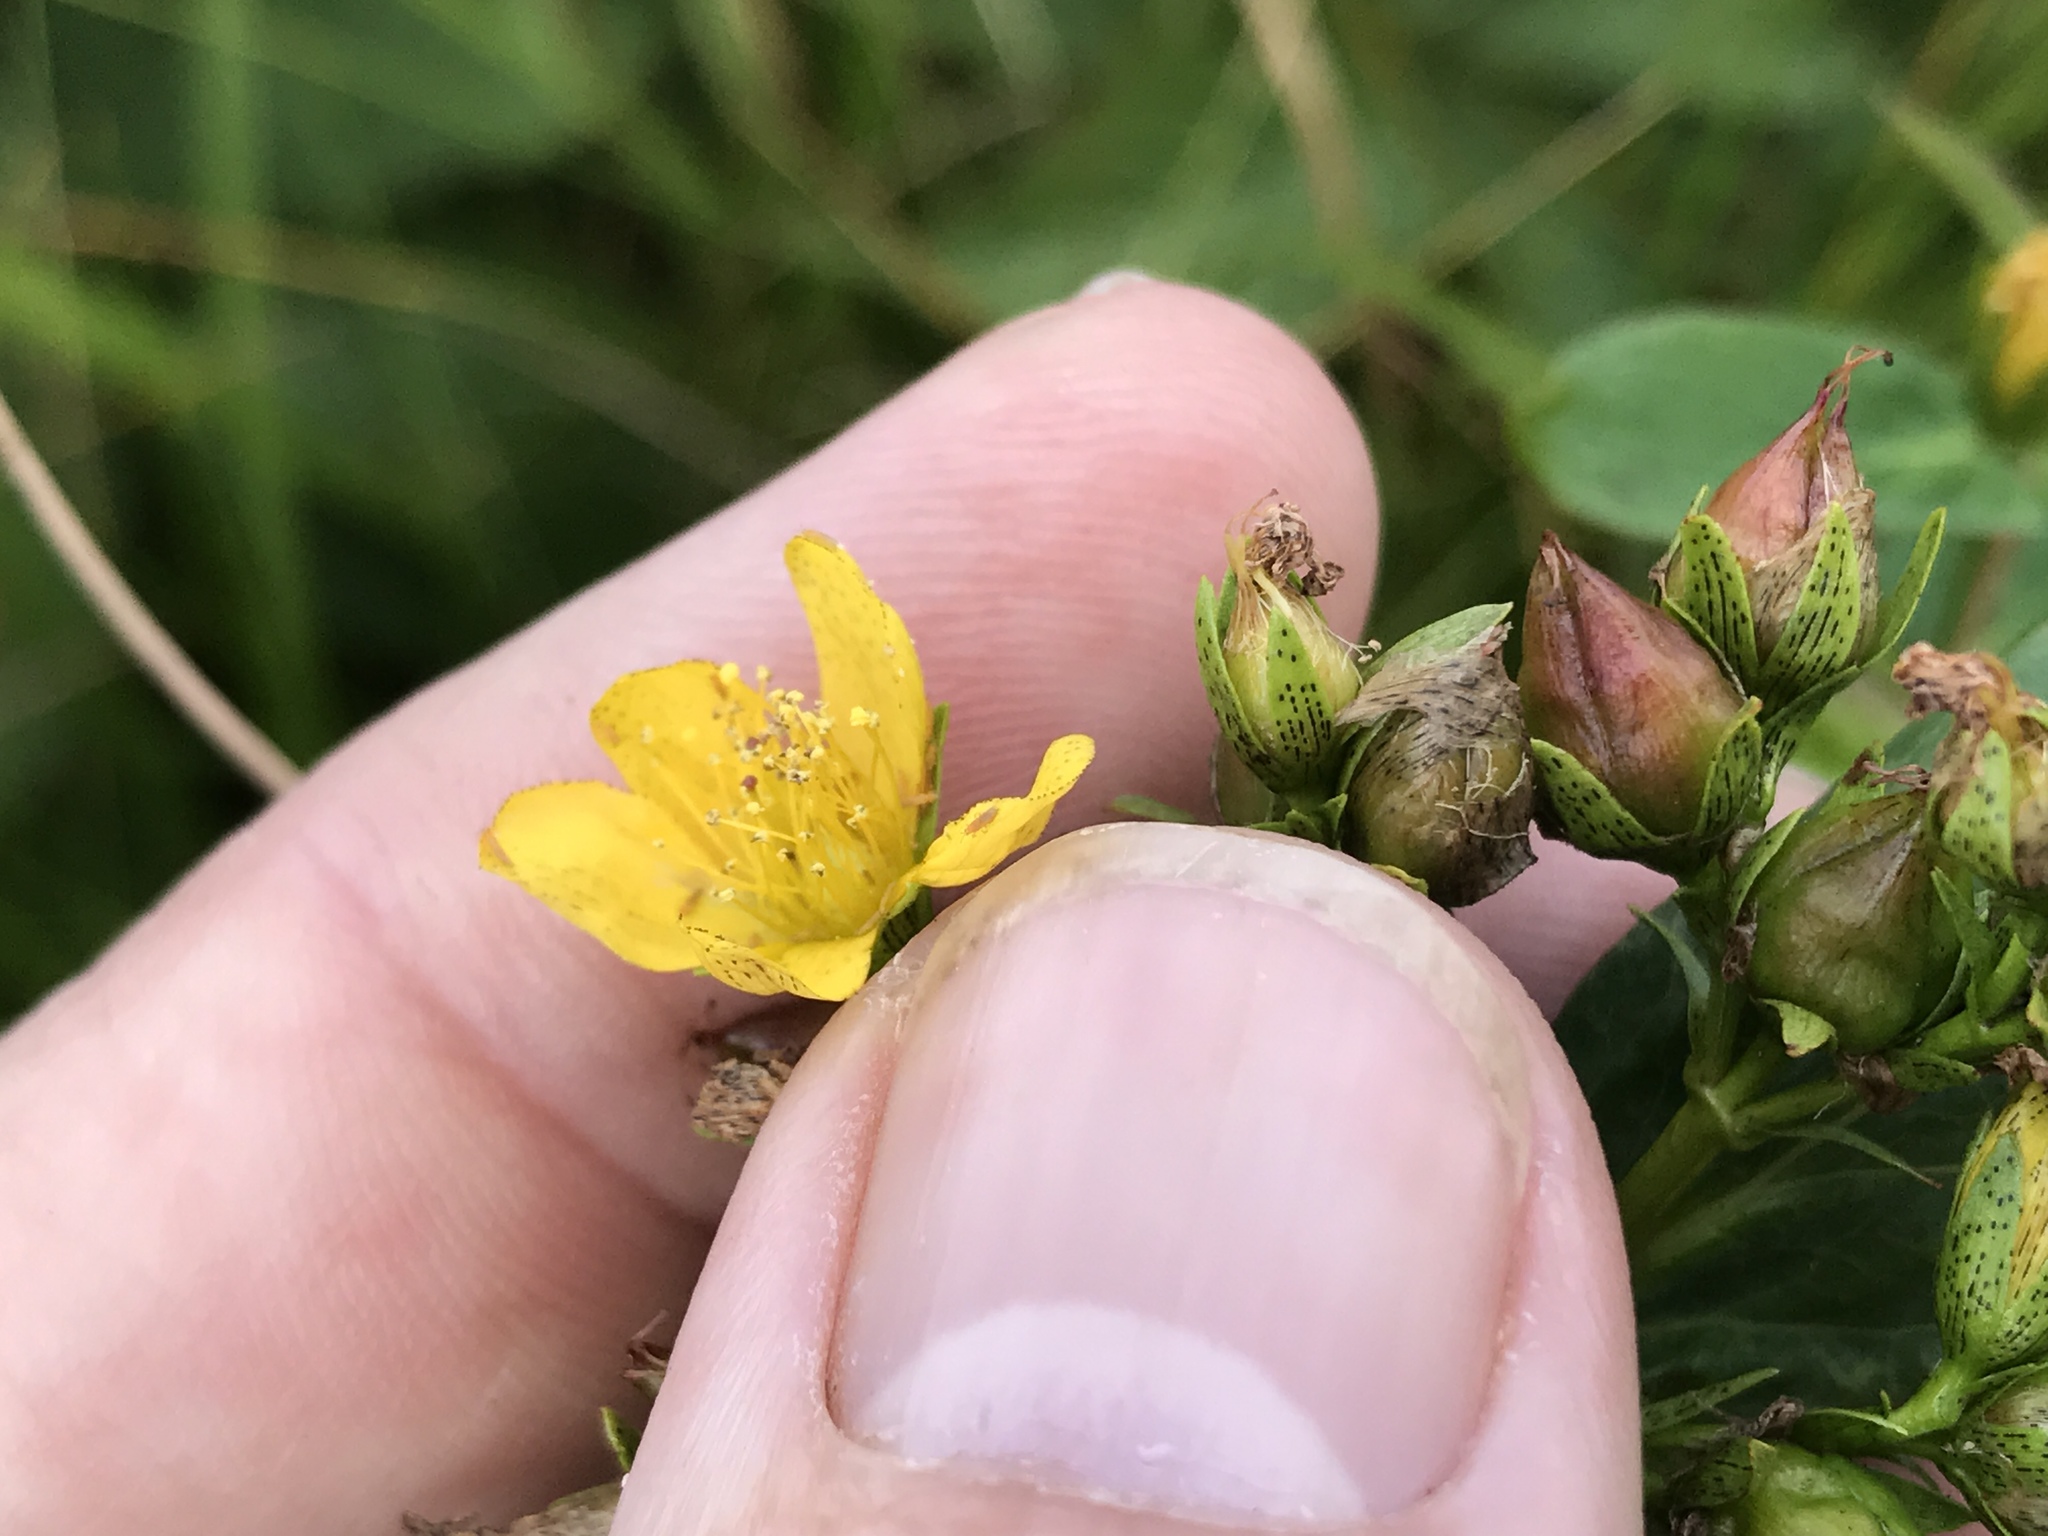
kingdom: Plantae
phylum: Tracheophyta
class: Magnoliopsida
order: Malpighiales
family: Hypericaceae
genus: Hypericum
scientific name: Hypericum mitchellianum
